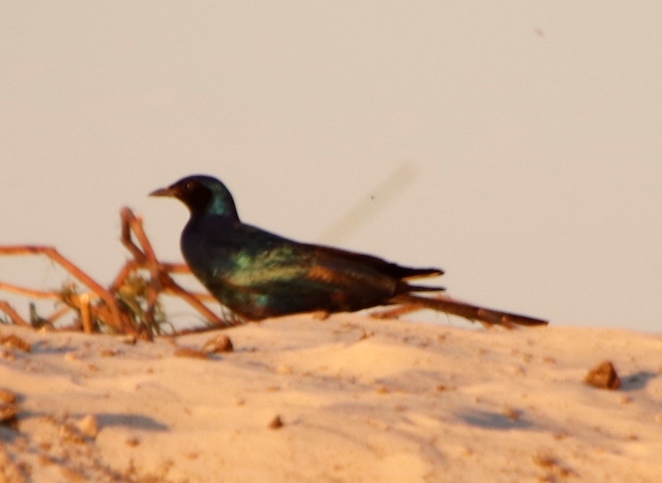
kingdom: Animalia
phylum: Chordata
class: Aves
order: Passeriformes
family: Sturnidae
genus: Lamprotornis
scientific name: Lamprotornis mevesii
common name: Meves's starling
